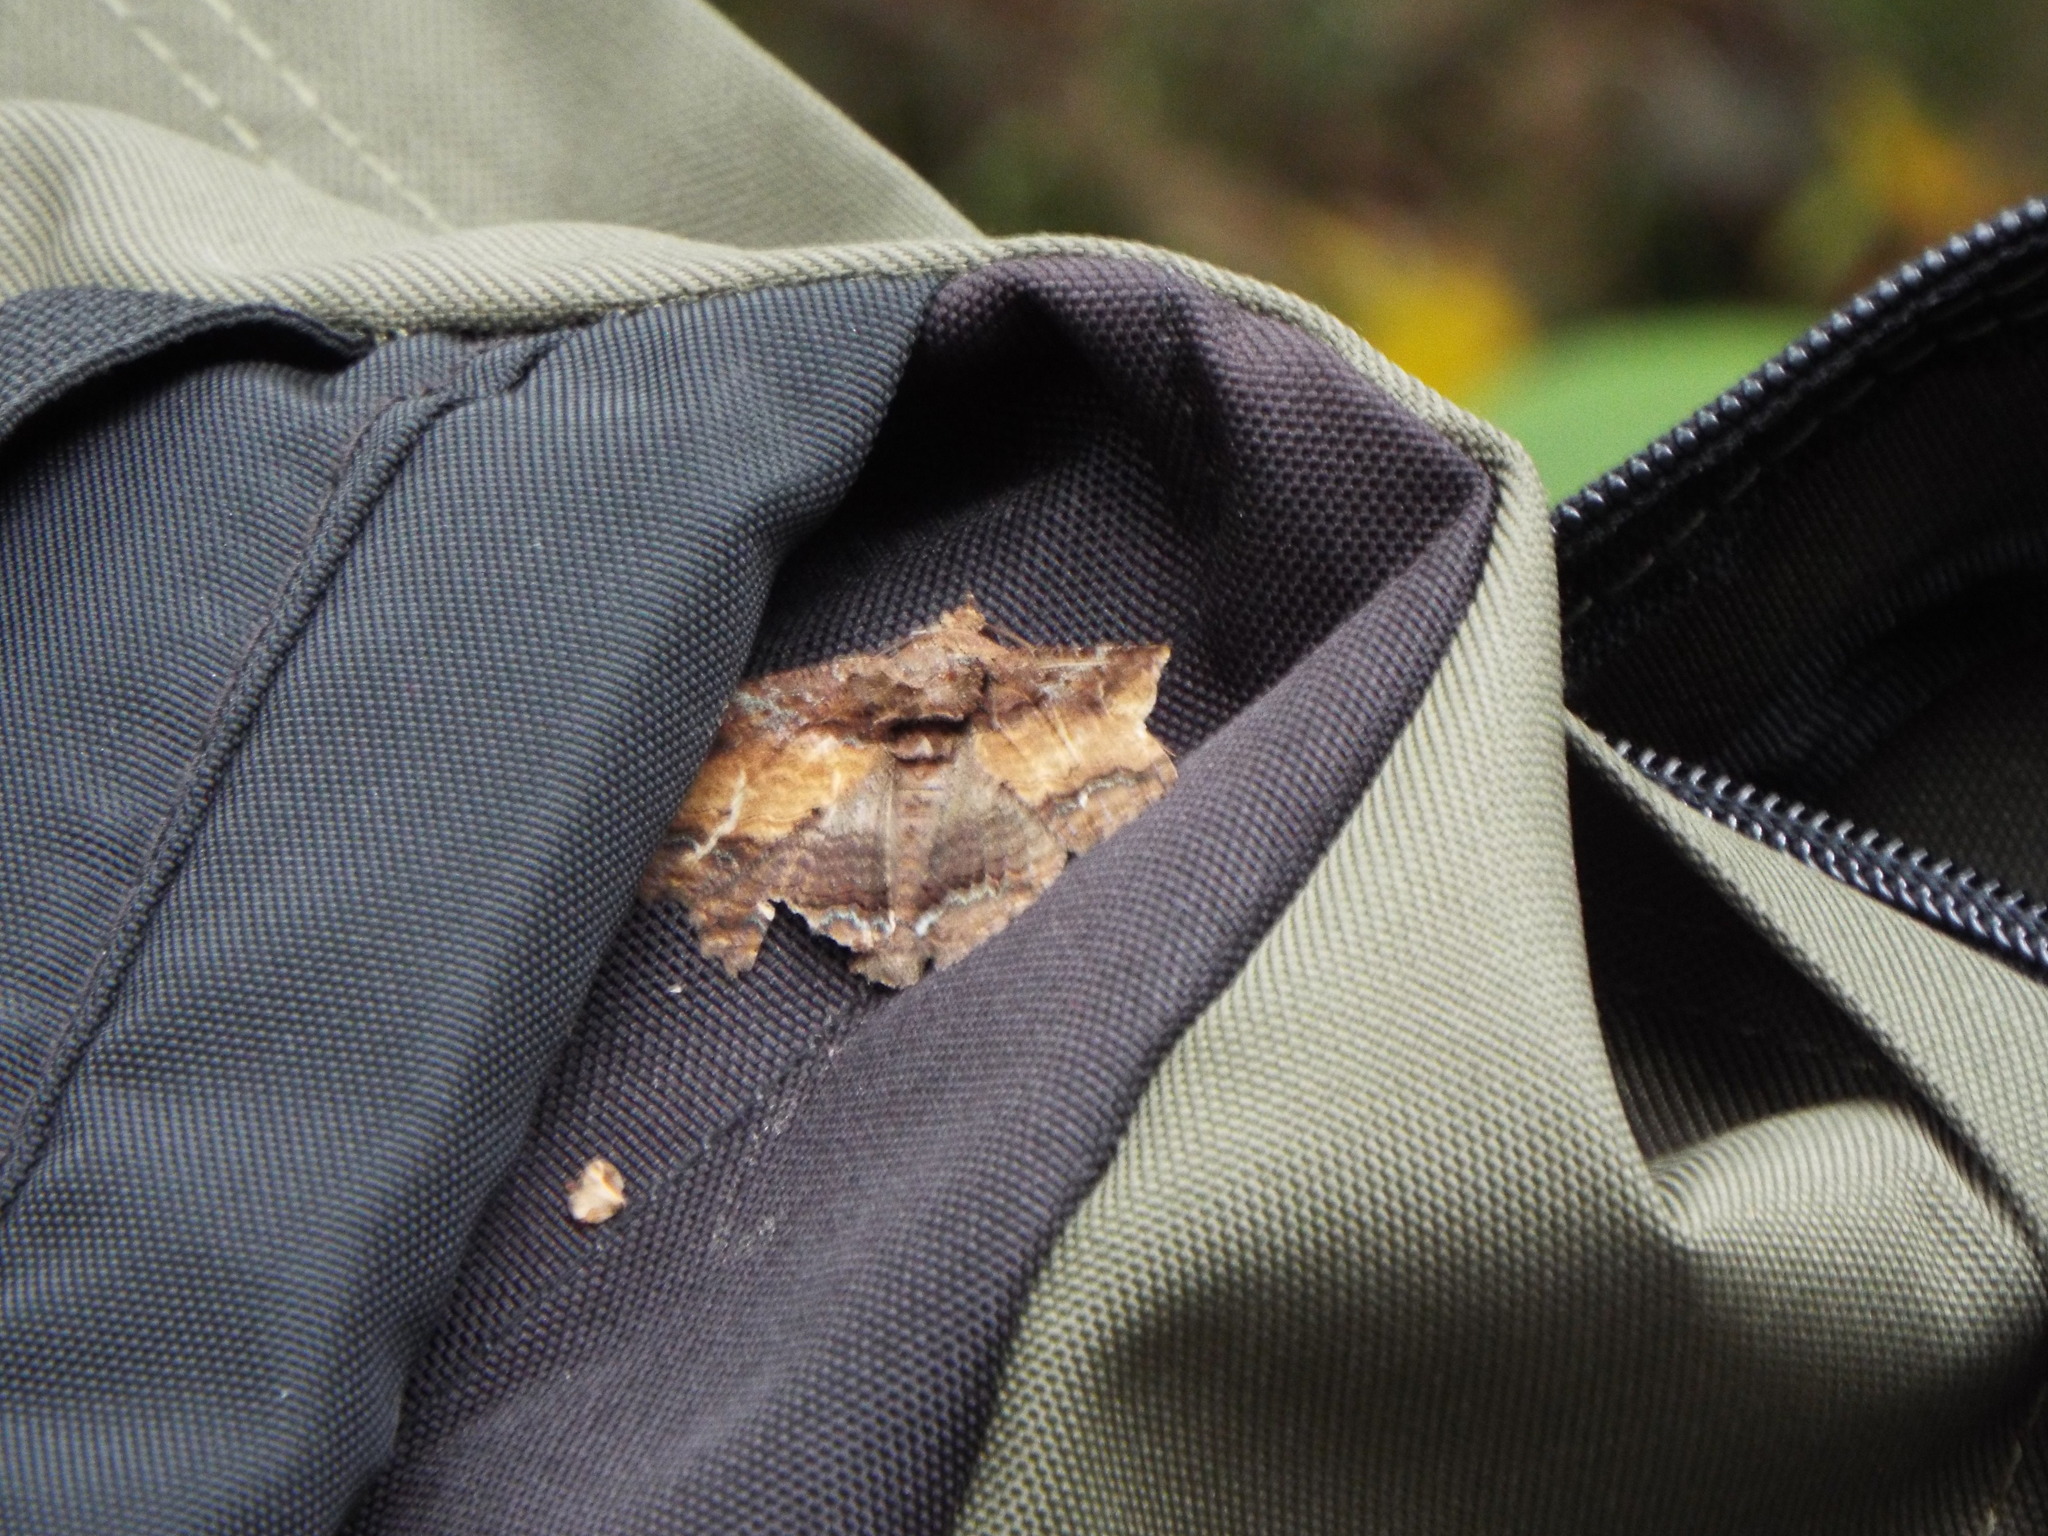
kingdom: Animalia
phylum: Arthropoda
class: Insecta
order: Lepidoptera
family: Erebidae
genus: Zale
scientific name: Zale minerea
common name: Colorful zale moth
